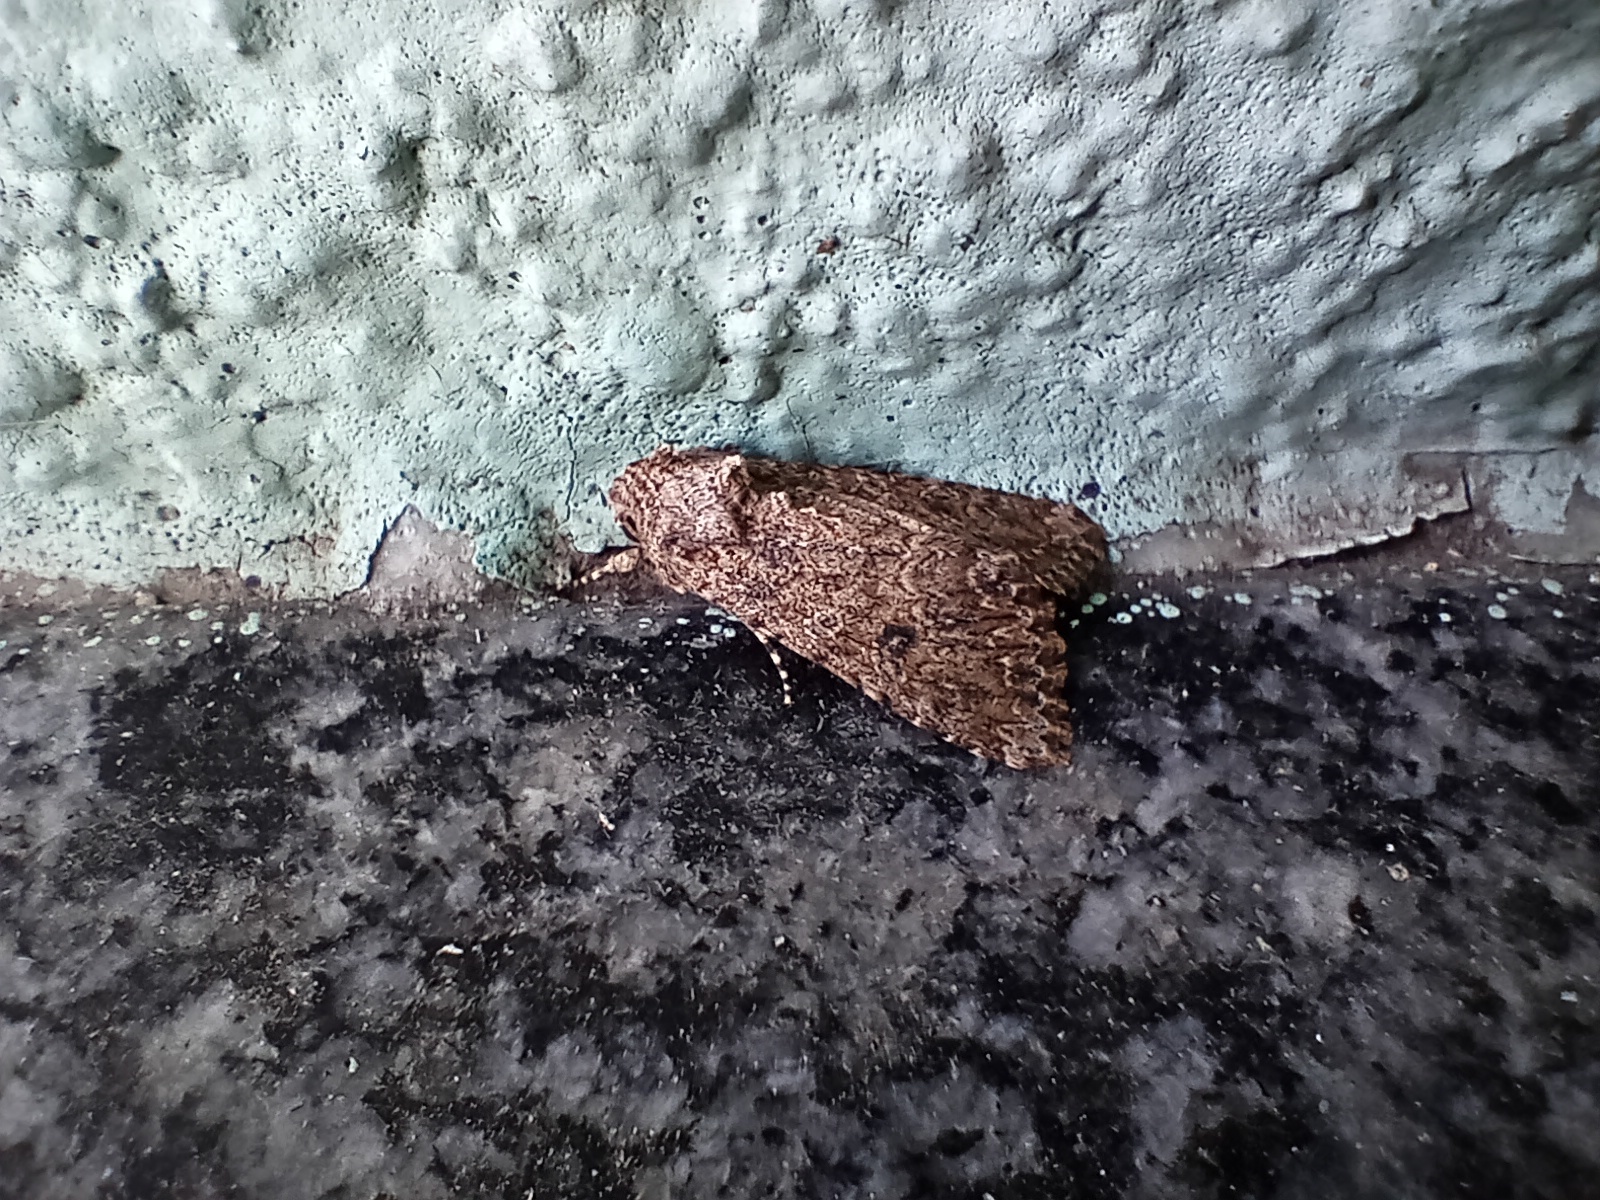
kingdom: Animalia
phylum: Arthropoda
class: Insecta
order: Lepidoptera
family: Noctuidae
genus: Anarta
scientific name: Anarta trifolii
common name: Clover cutworm moth
